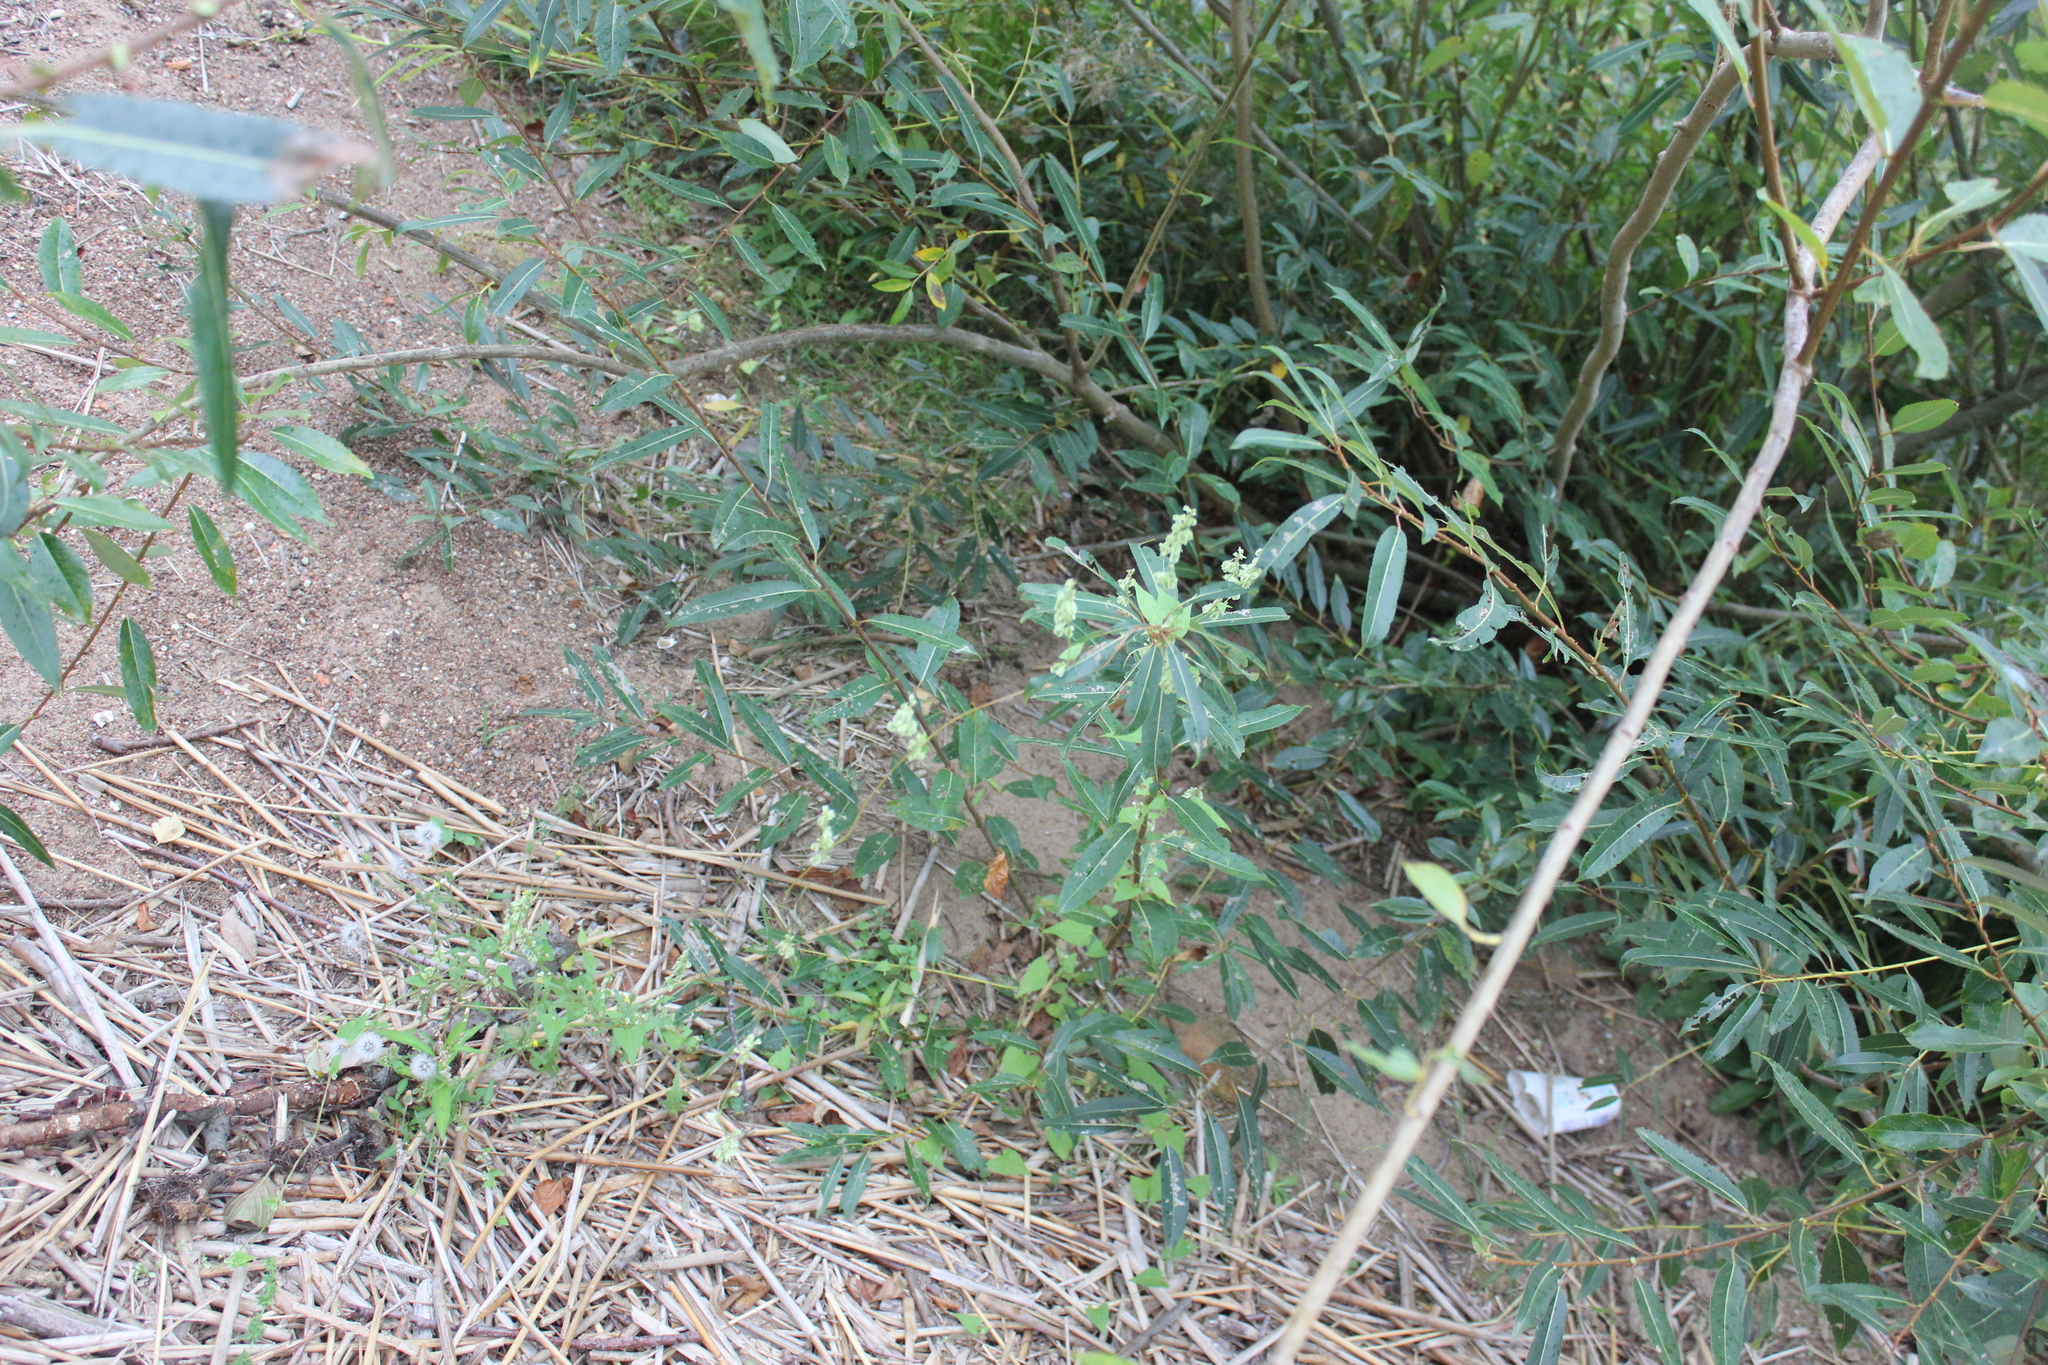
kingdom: Plantae
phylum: Tracheophyta
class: Magnoliopsida
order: Caryophyllales
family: Polygonaceae
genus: Fallopia
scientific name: Fallopia dumetorum
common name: Copse-bindweed
